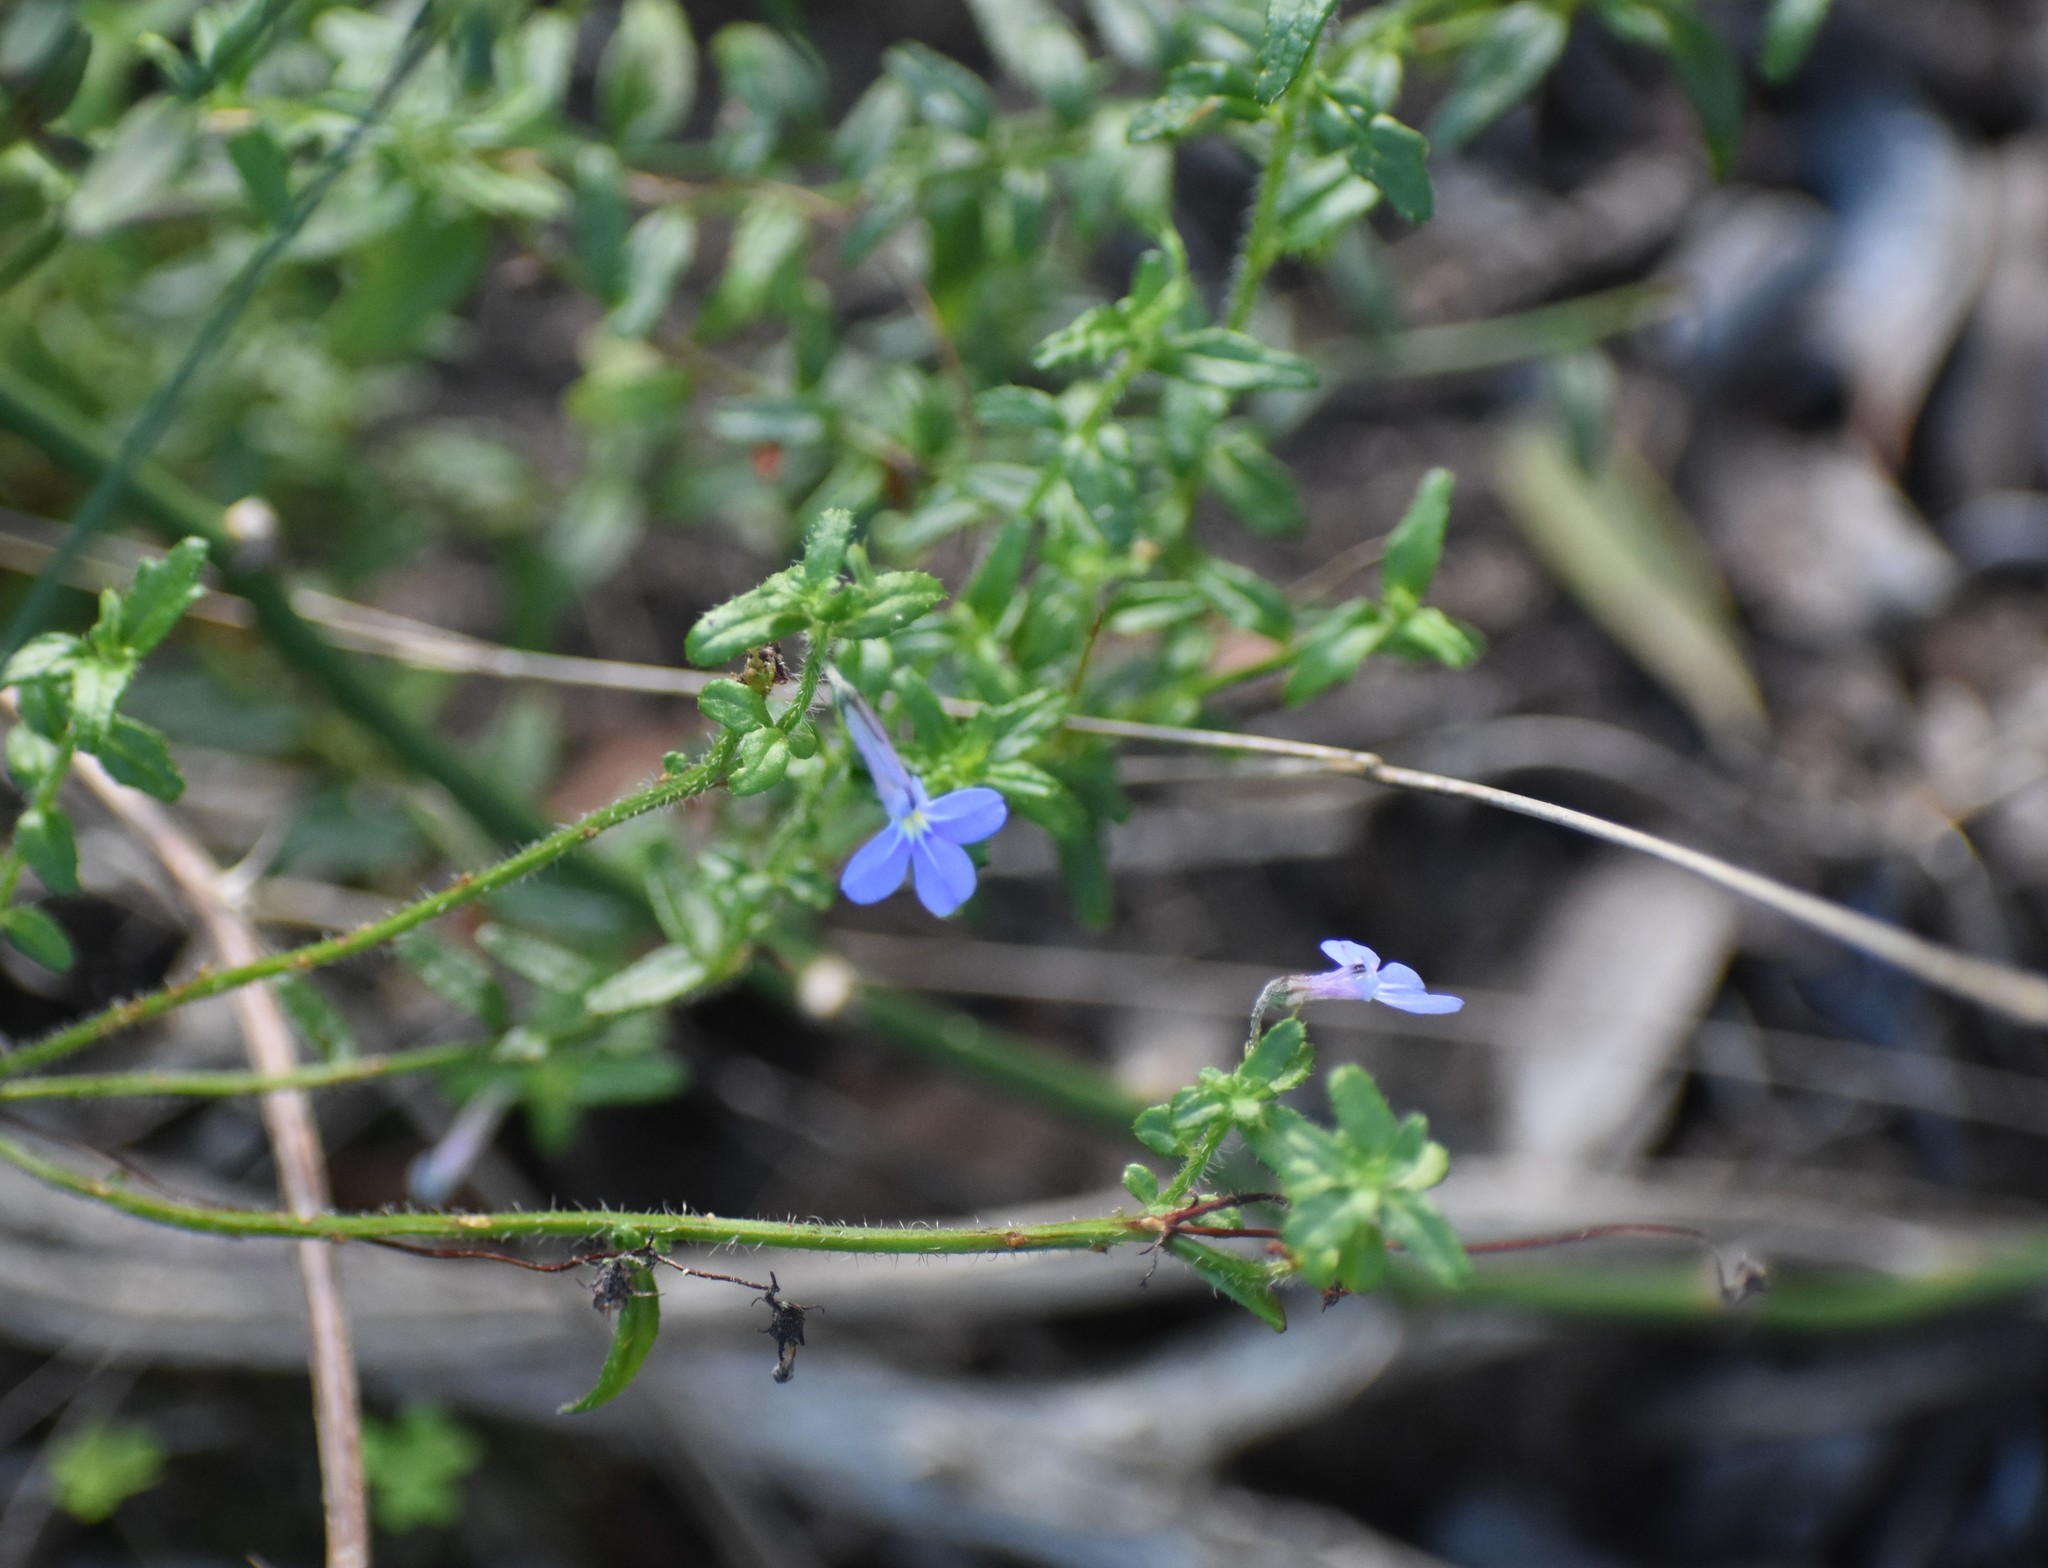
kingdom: Plantae
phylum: Tracheophyta
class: Magnoliopsida
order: Asterales
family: Campanulaceae
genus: Lobelia
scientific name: Lobelia neglecta
